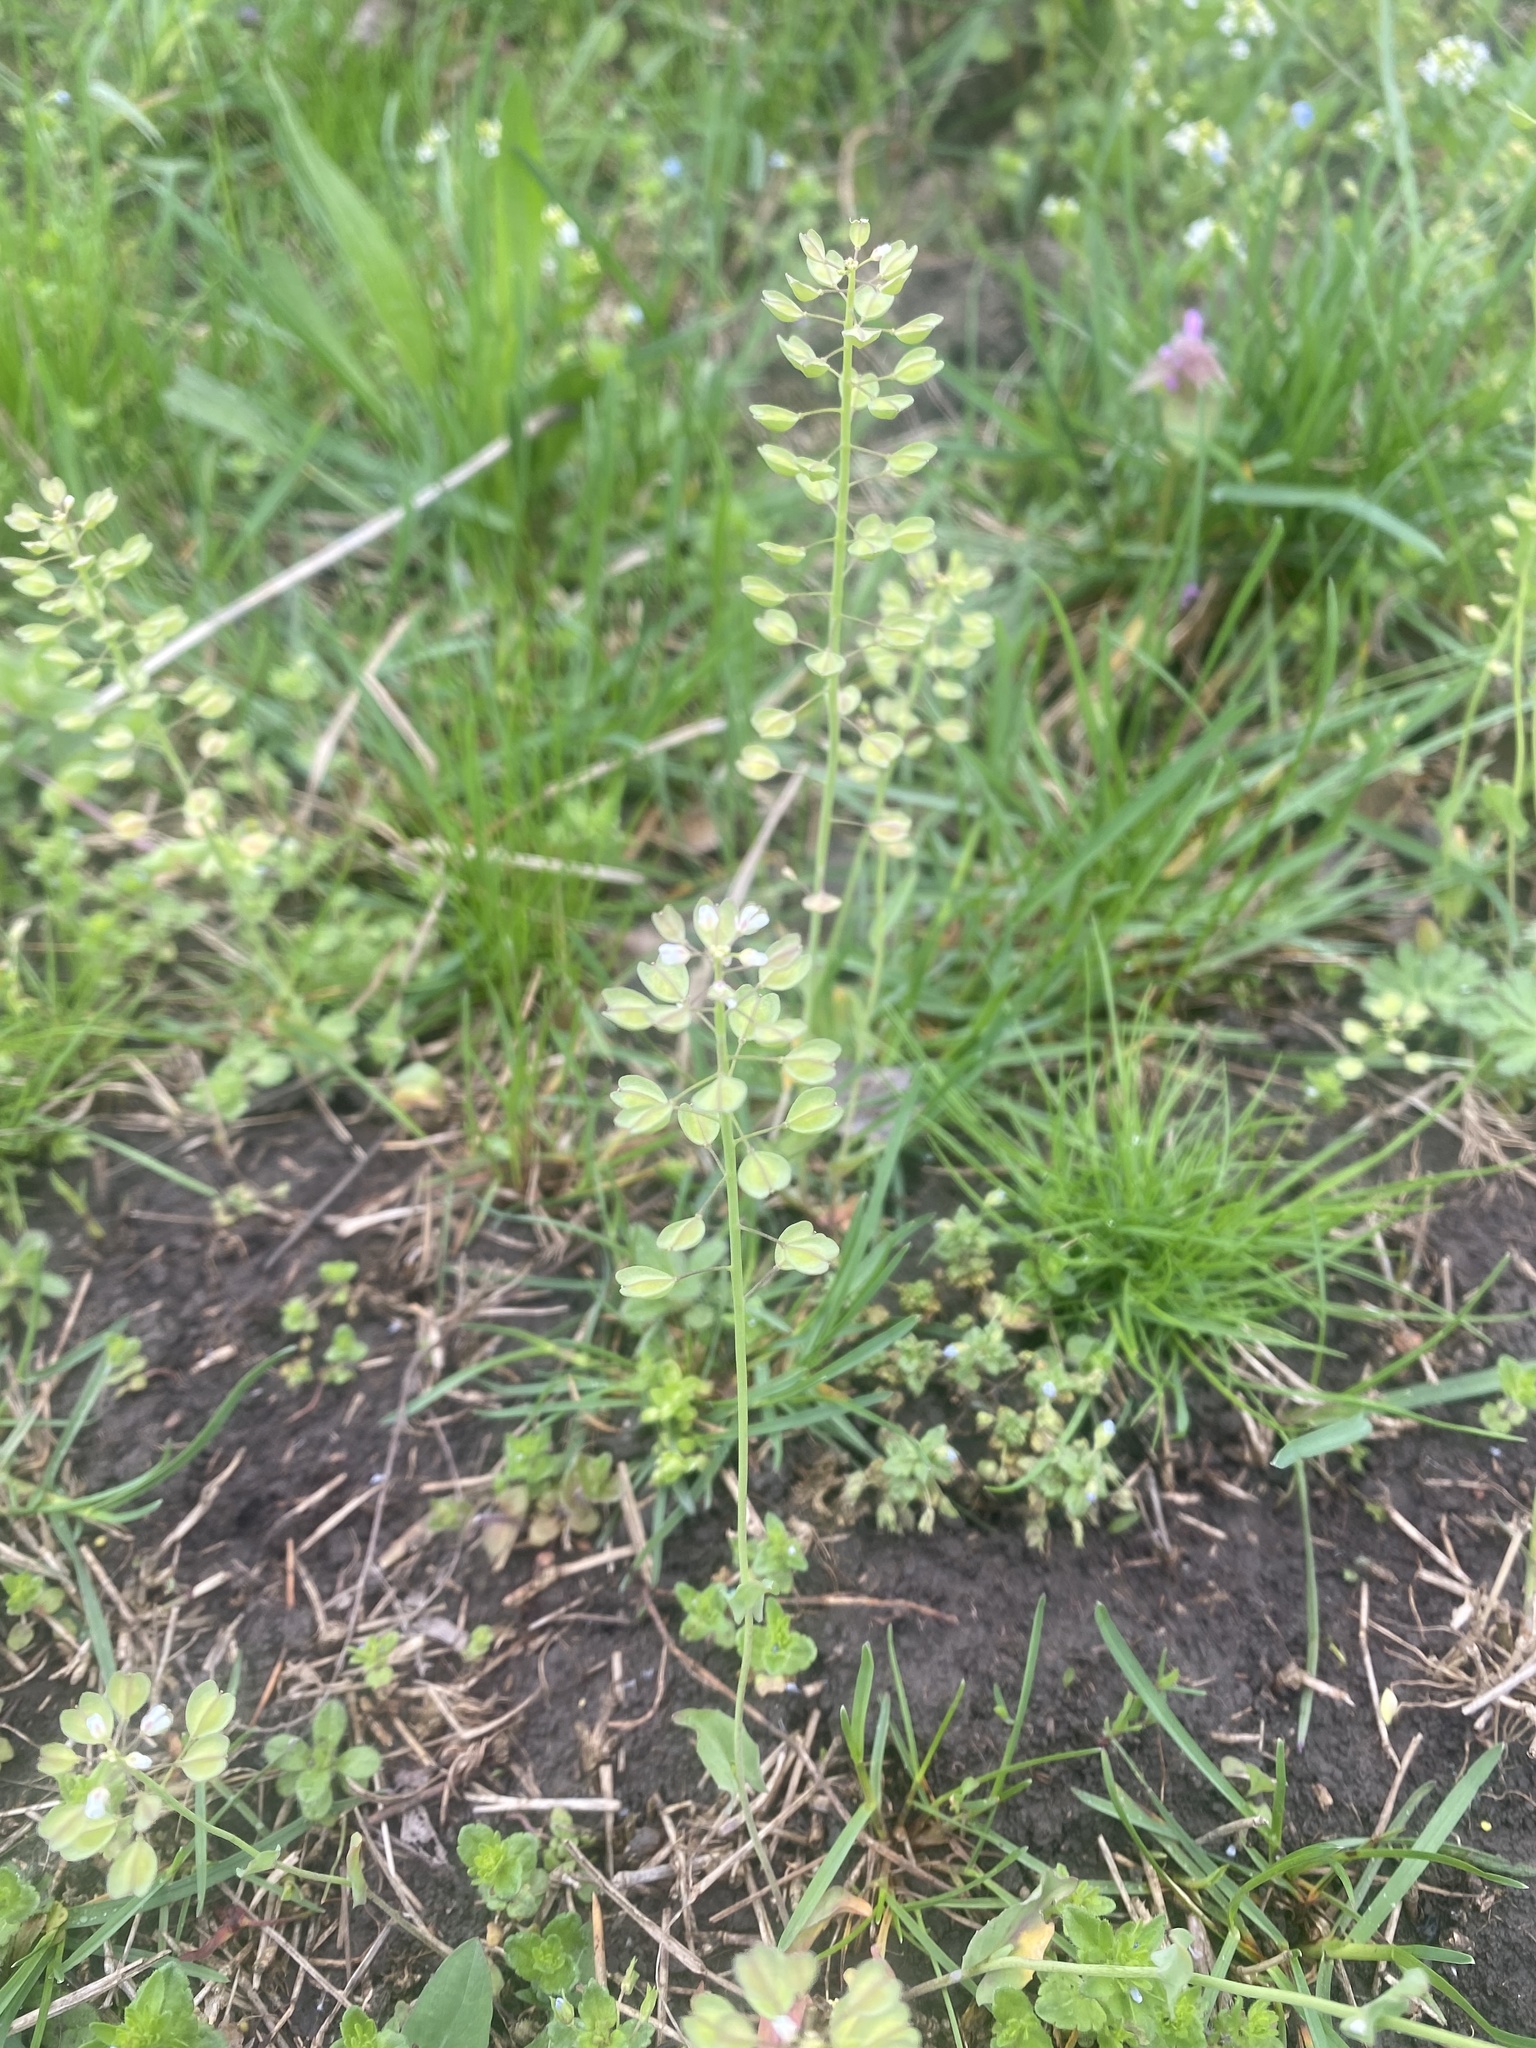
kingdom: Plantae
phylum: Tracheophyta
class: Magnoliopsida
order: Brassicales
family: Brassicaceae
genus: Noccaea
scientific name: Noccaea perfoliata
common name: Perfoliate pennycress
